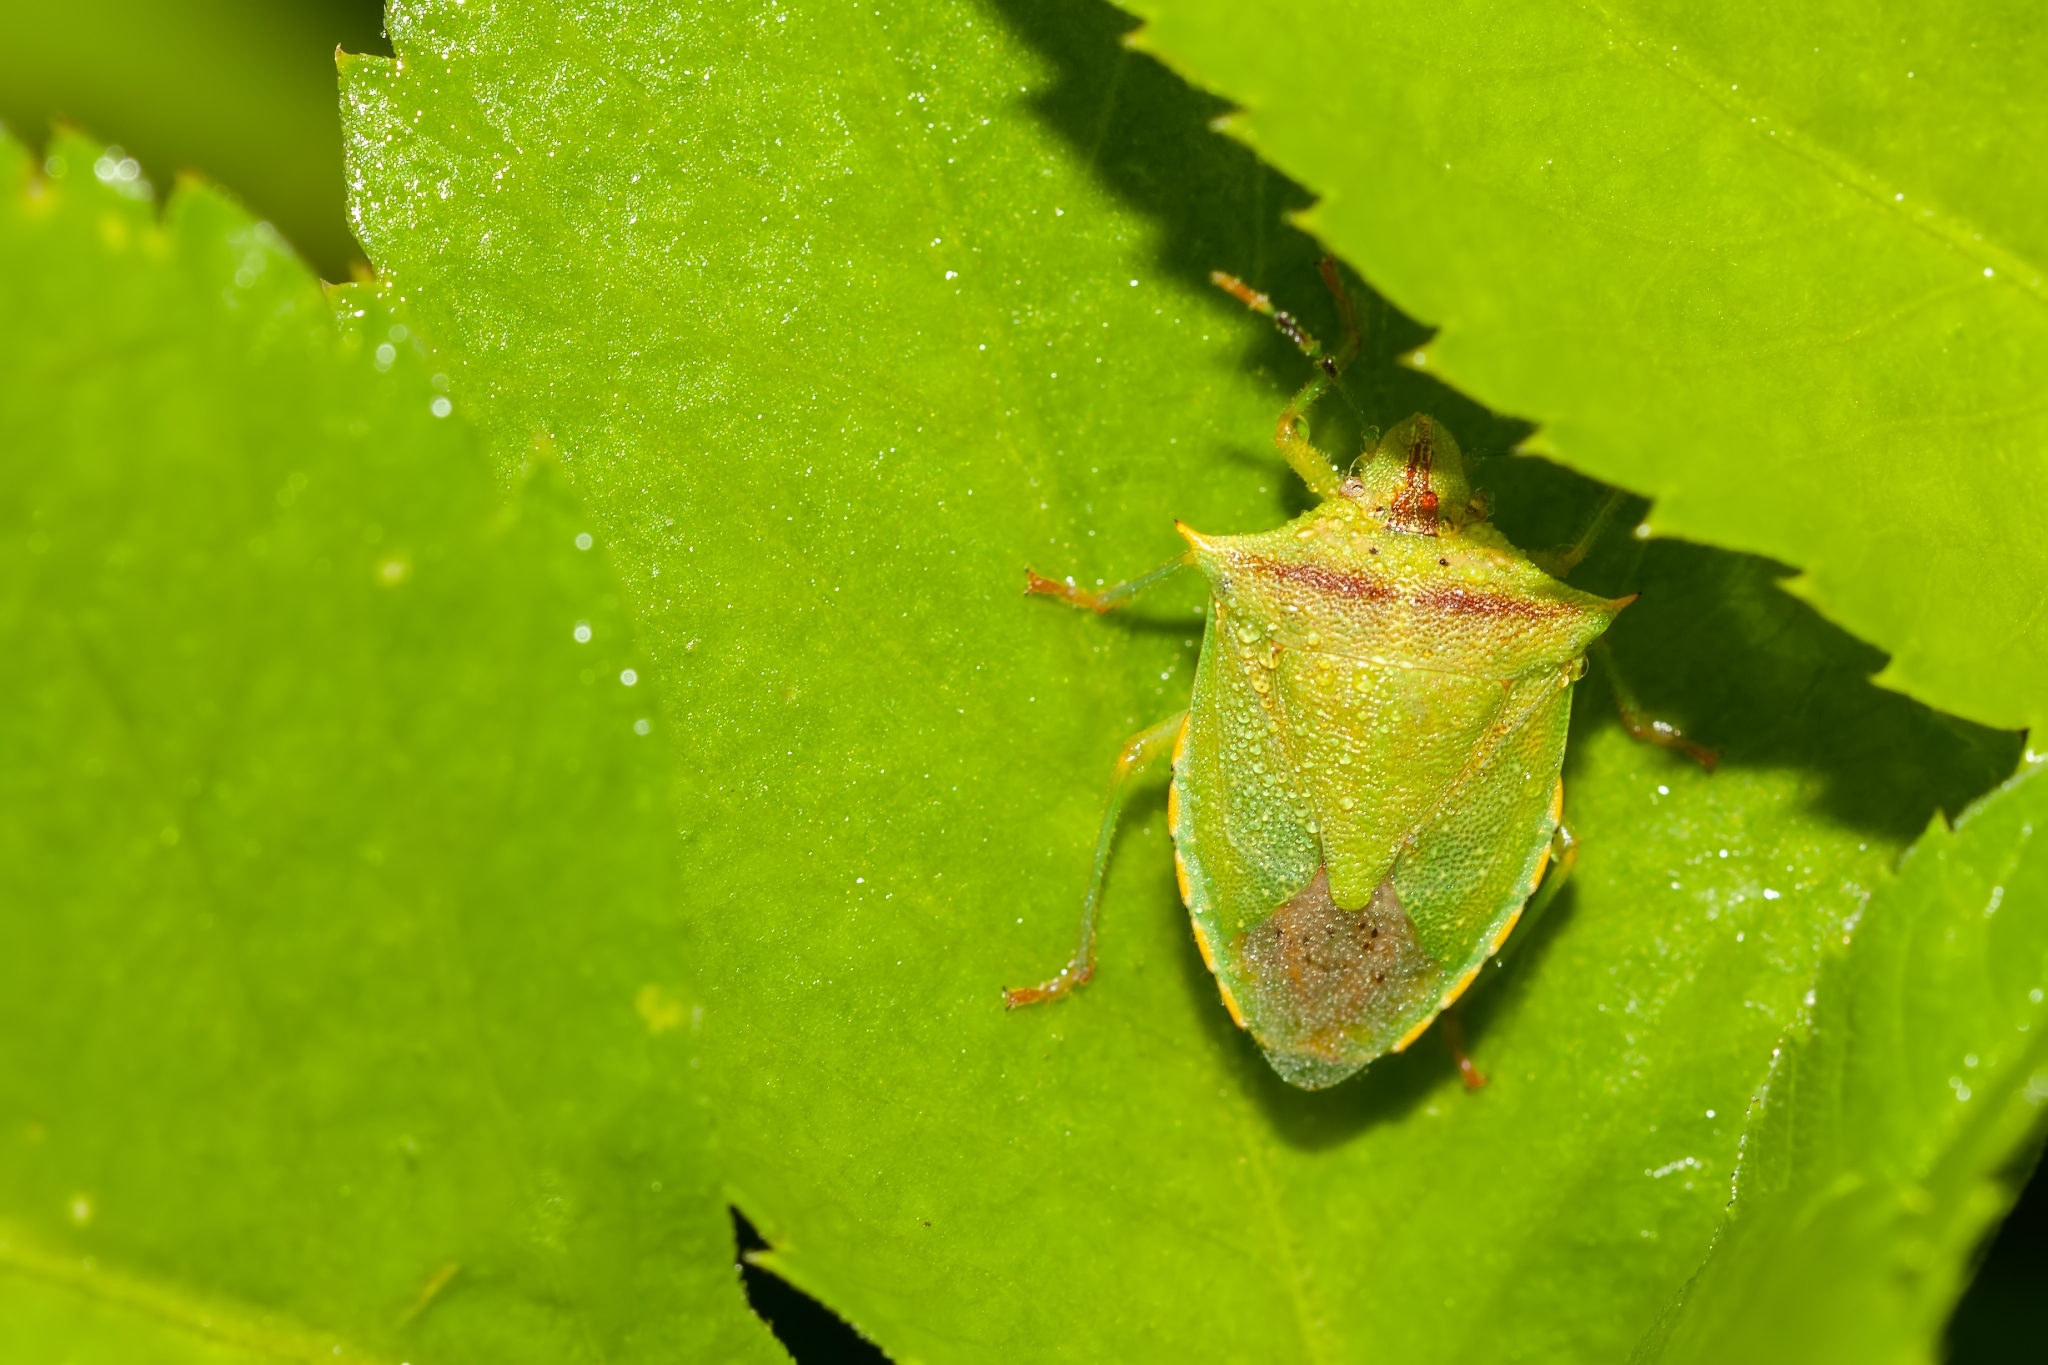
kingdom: Animalia
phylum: Arthropoda
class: Insecta
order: Hemiptera
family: Pentatomidae
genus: Thyanta
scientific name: Thyanta perditor
